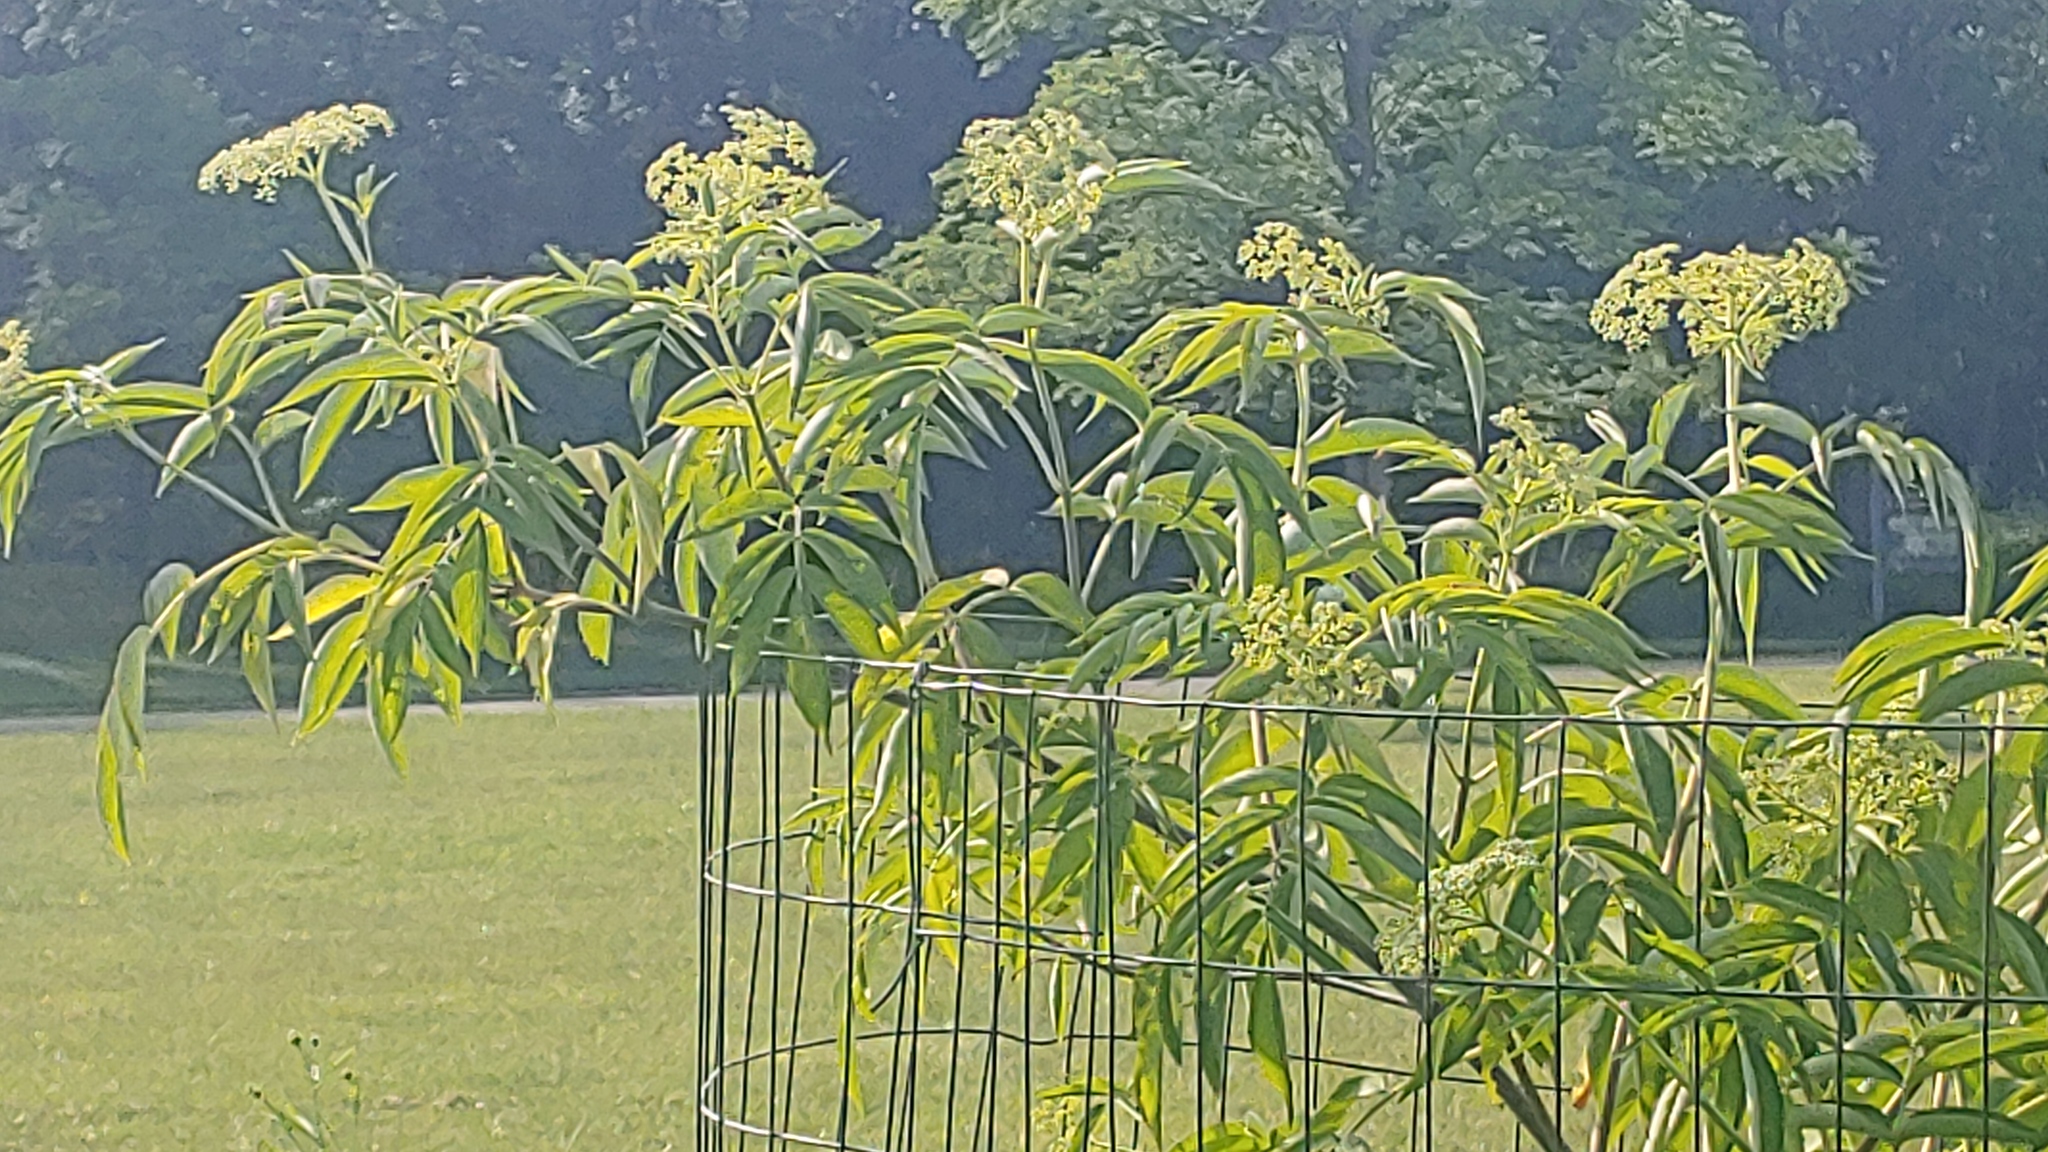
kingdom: Plantae
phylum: Tracheophyta
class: Magnoliopsida
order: Dipsacales
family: Viburnaceae
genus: Sambucus
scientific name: Sambucus canadensis
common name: American elder
